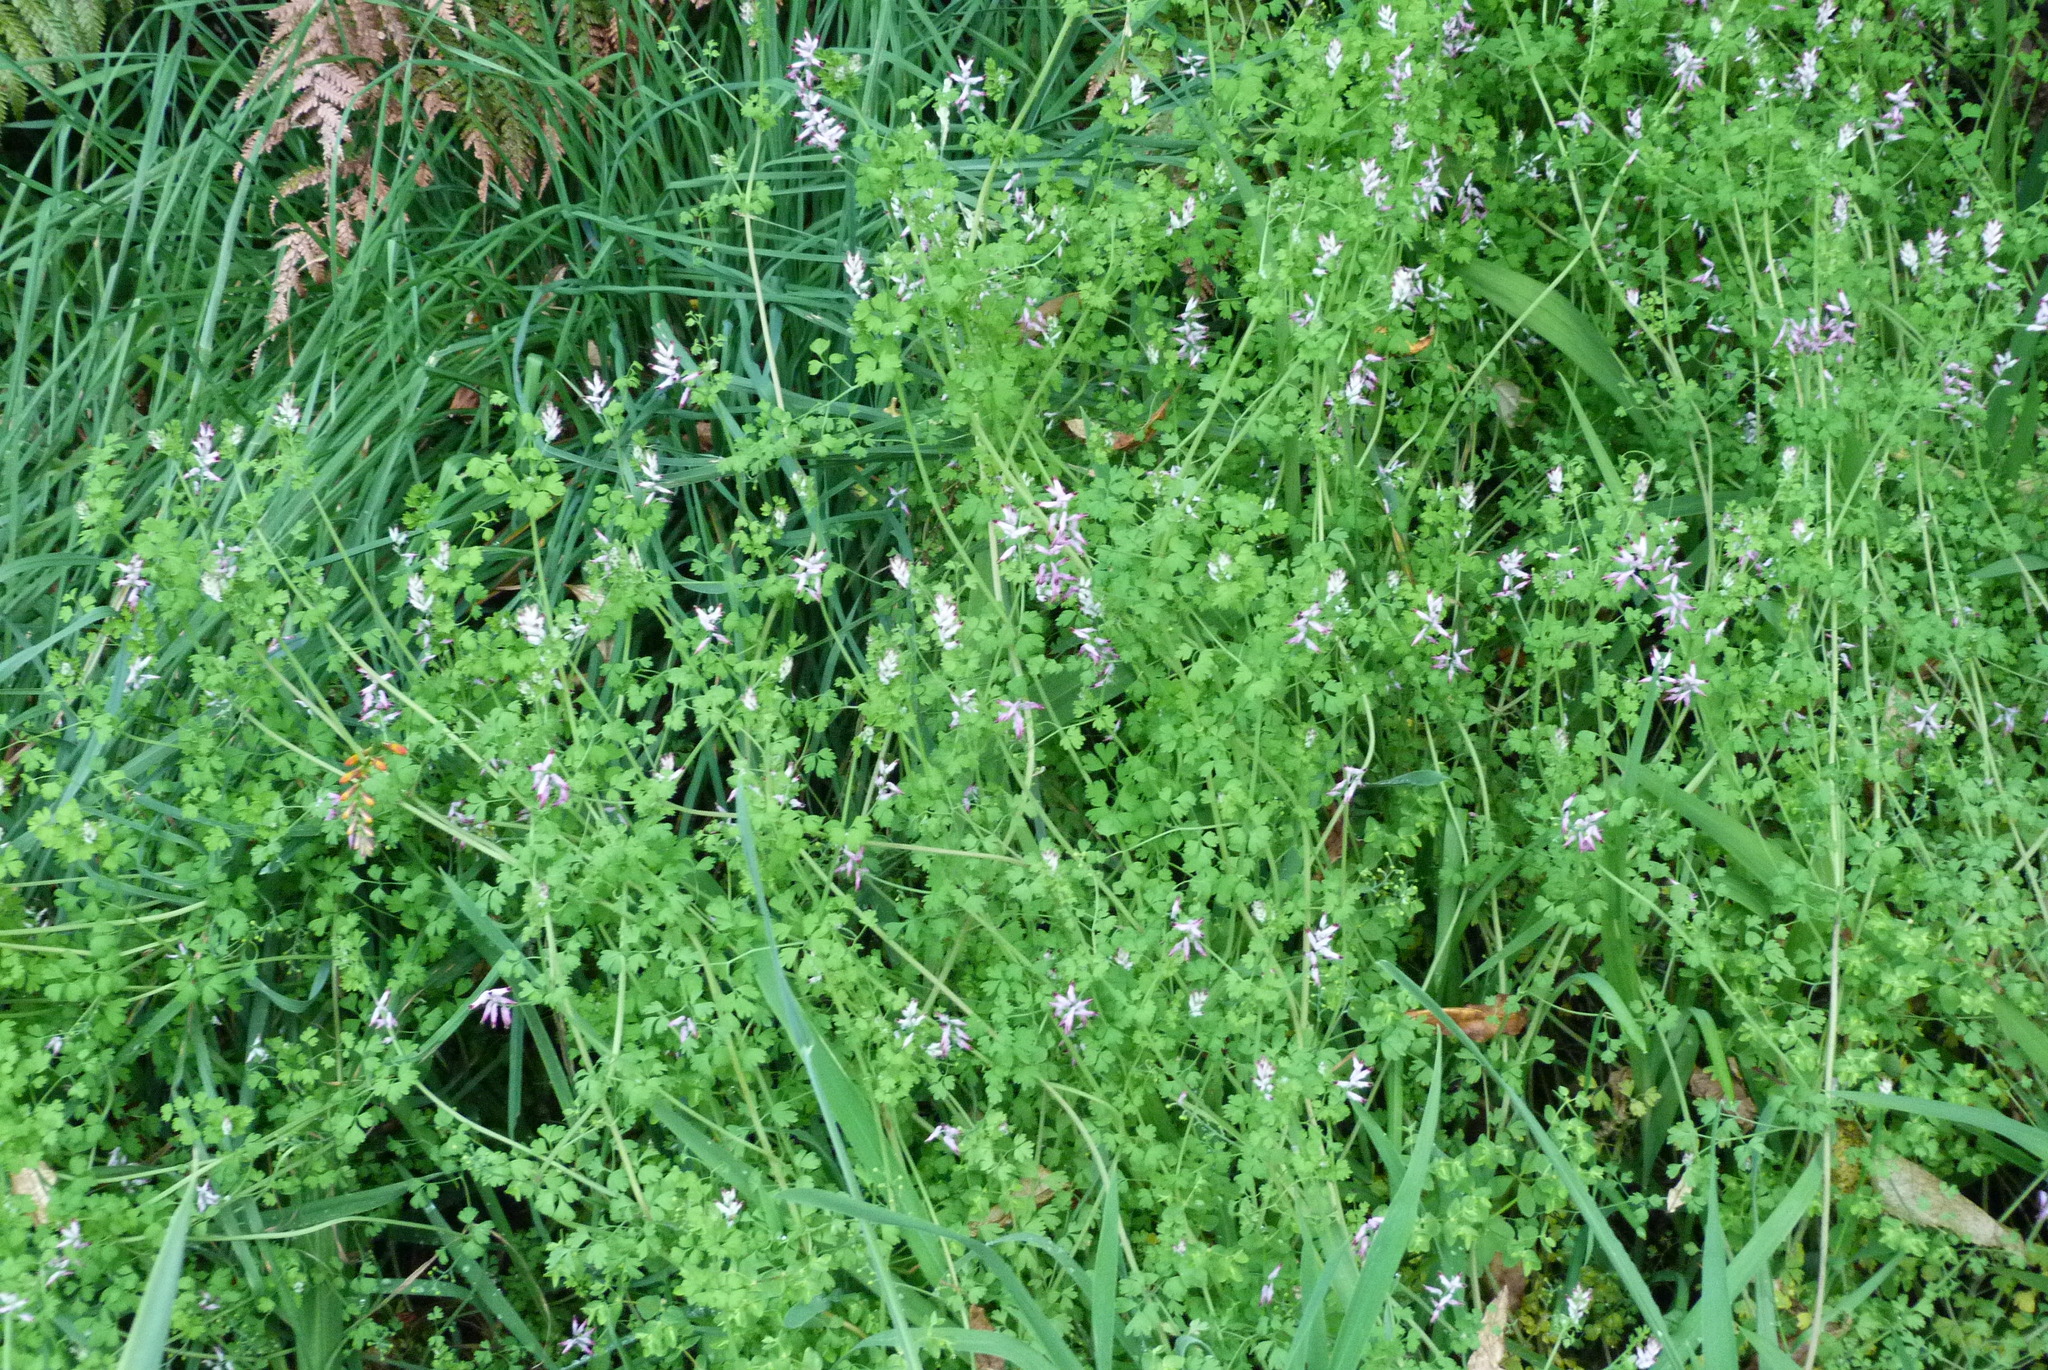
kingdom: Plantae
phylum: Tracheophyta
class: Magnoliopsida
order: Ranunculales
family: Papaveraceae
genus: Fumaria
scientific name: Fumaria muralis
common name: Common ramping-fumitory
